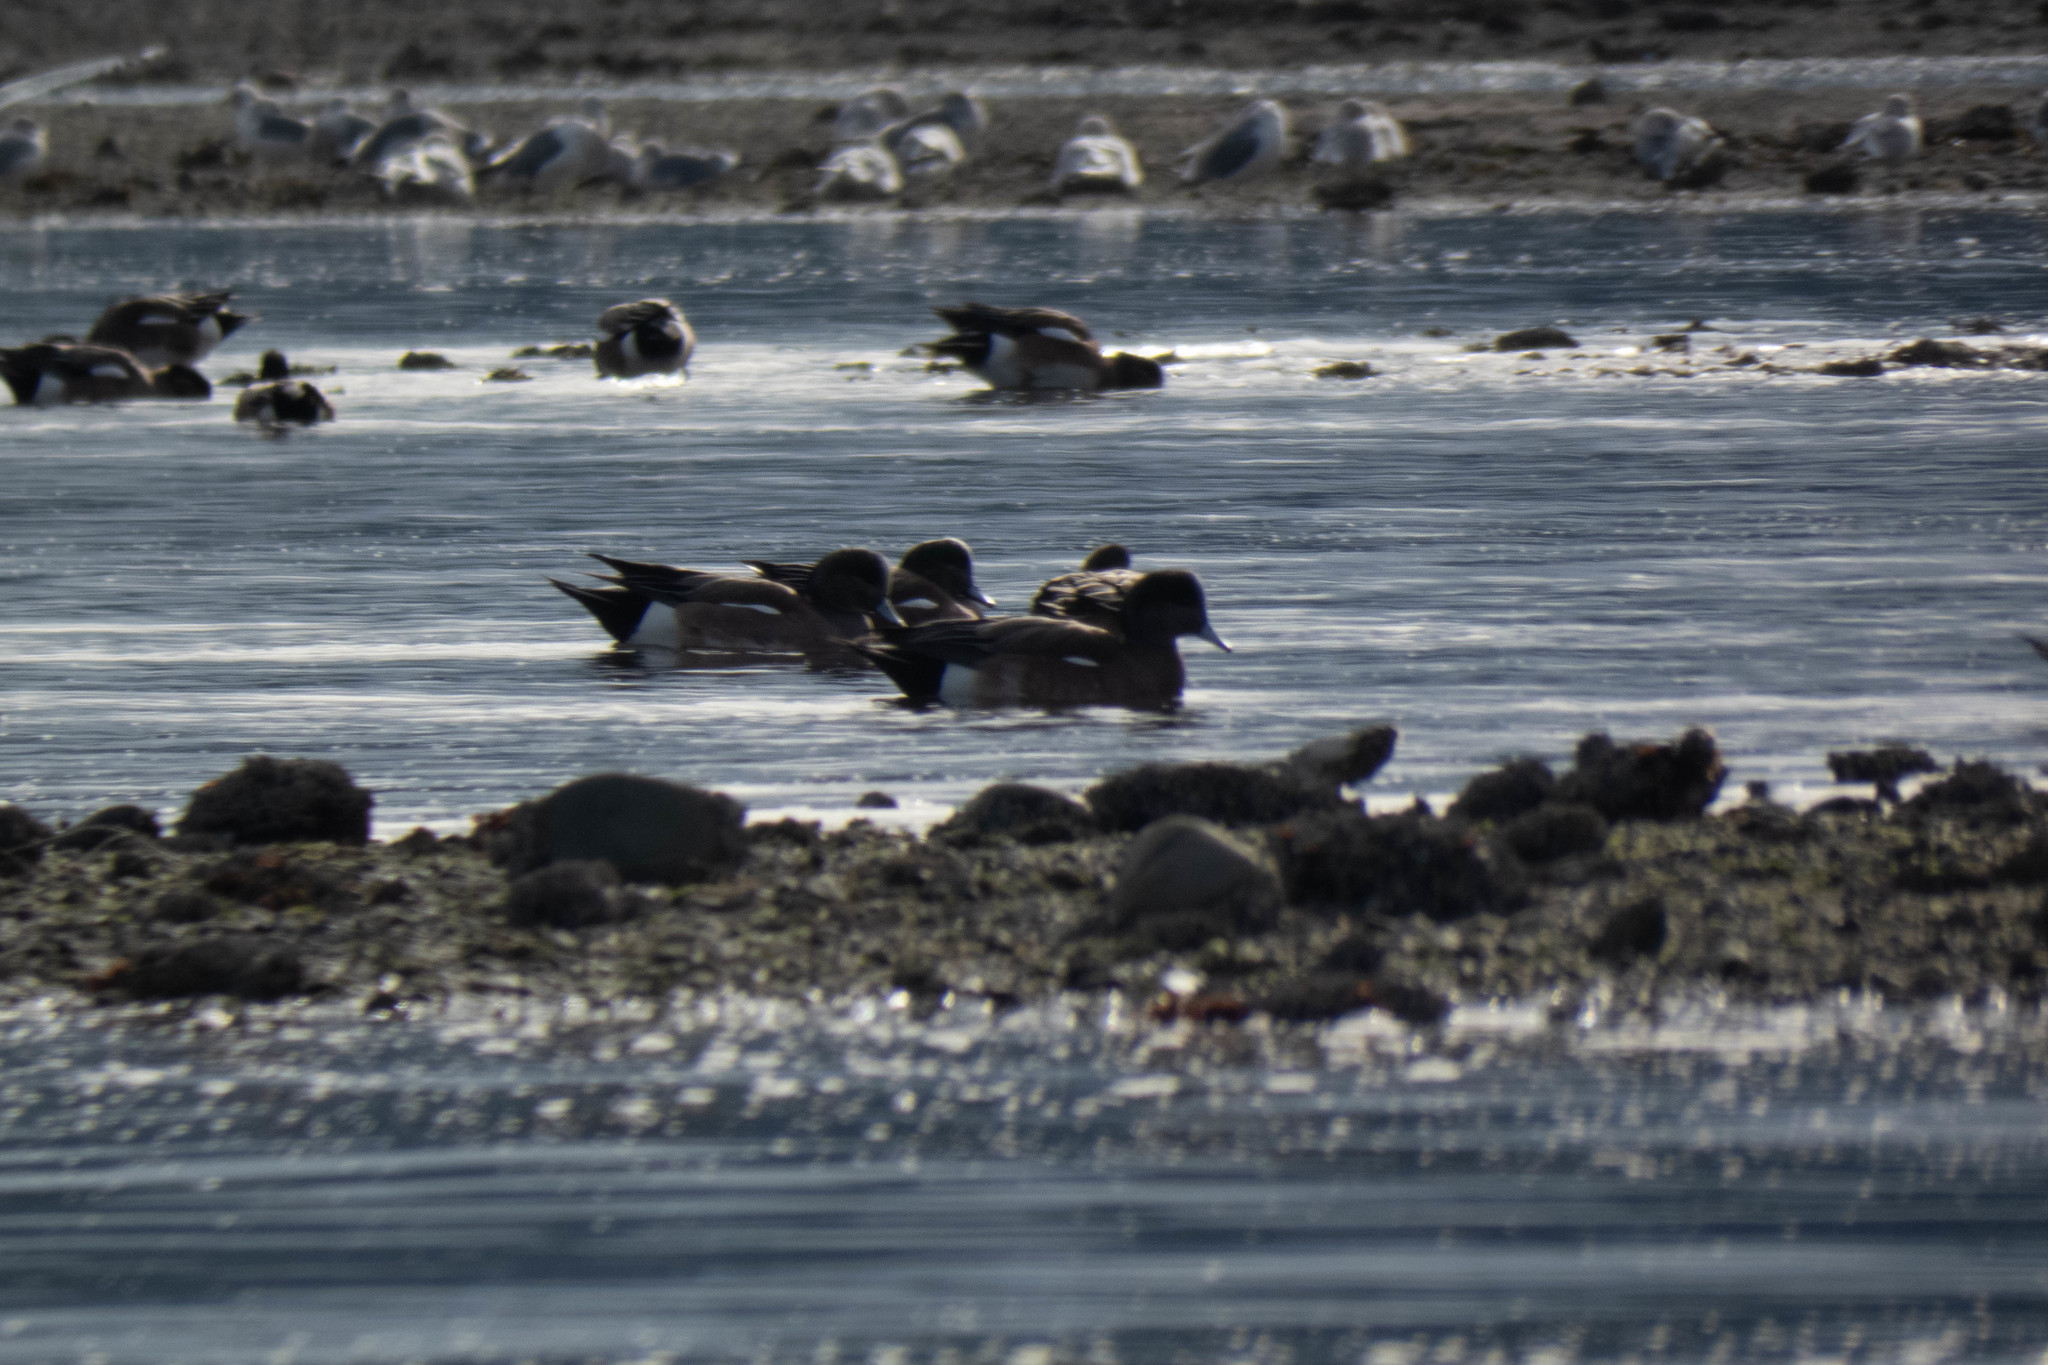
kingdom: Animalia
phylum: Chordata
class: Aves
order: Anseriformes
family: Anatidae
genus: Mareca
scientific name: Mareca americana
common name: American wigeon
